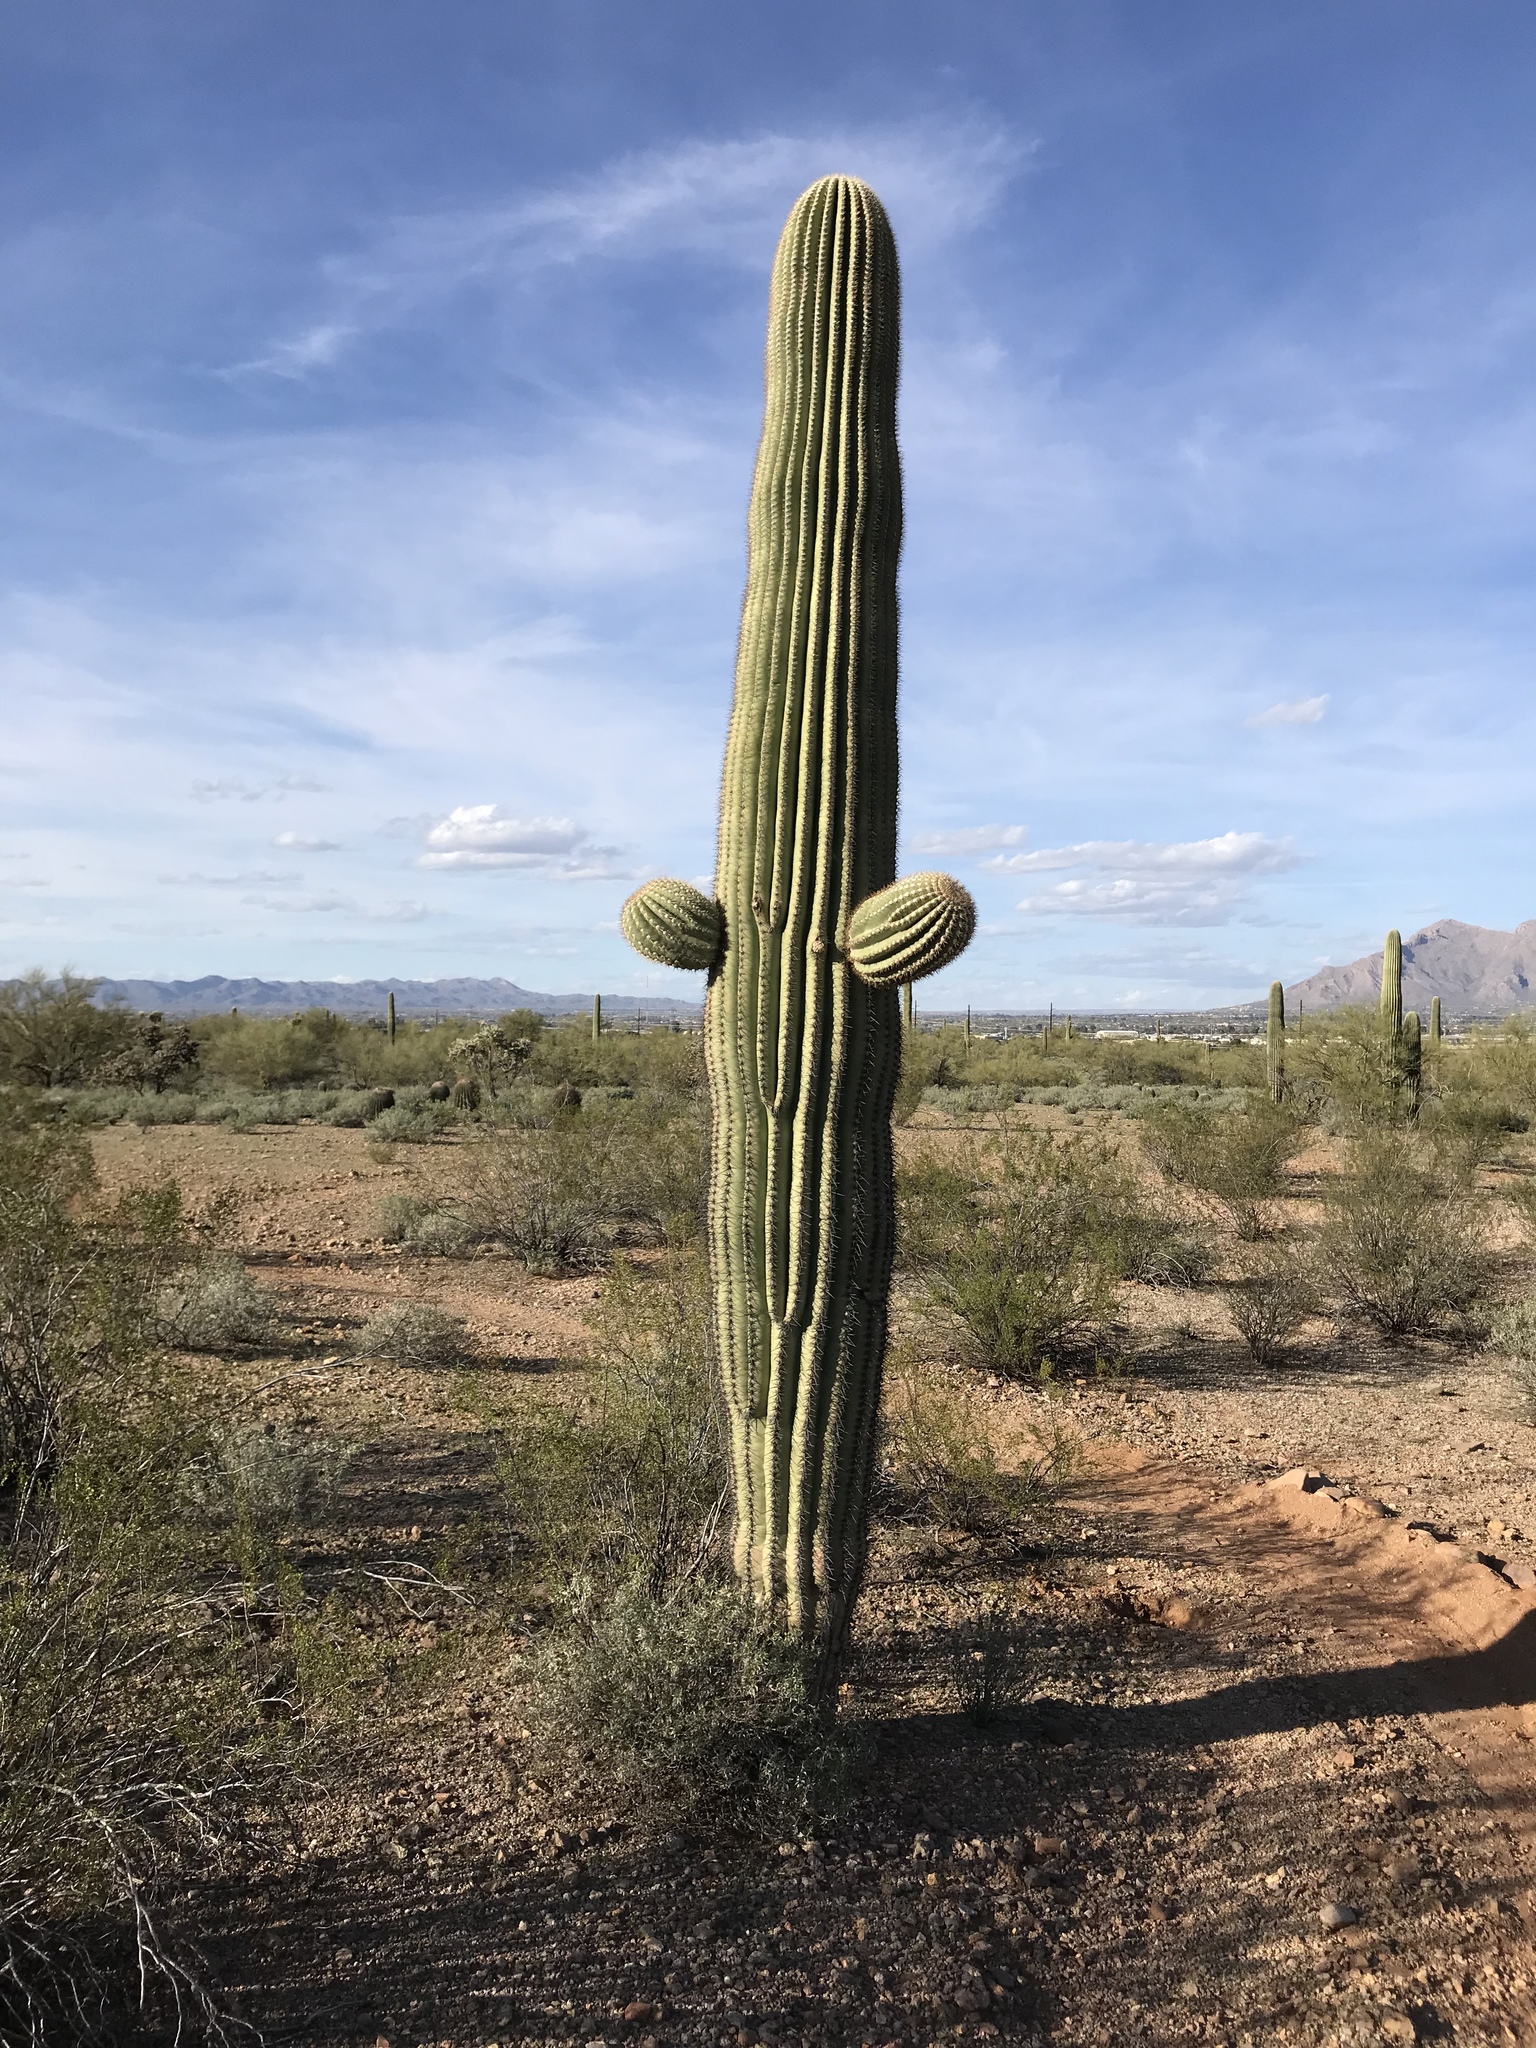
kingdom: Plantae
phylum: Tracheophyta
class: Magnoliopsida
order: Caryophyllales
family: Cactaceae
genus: Carnegiea
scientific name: Carnegiea gigantea
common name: Saguaro
